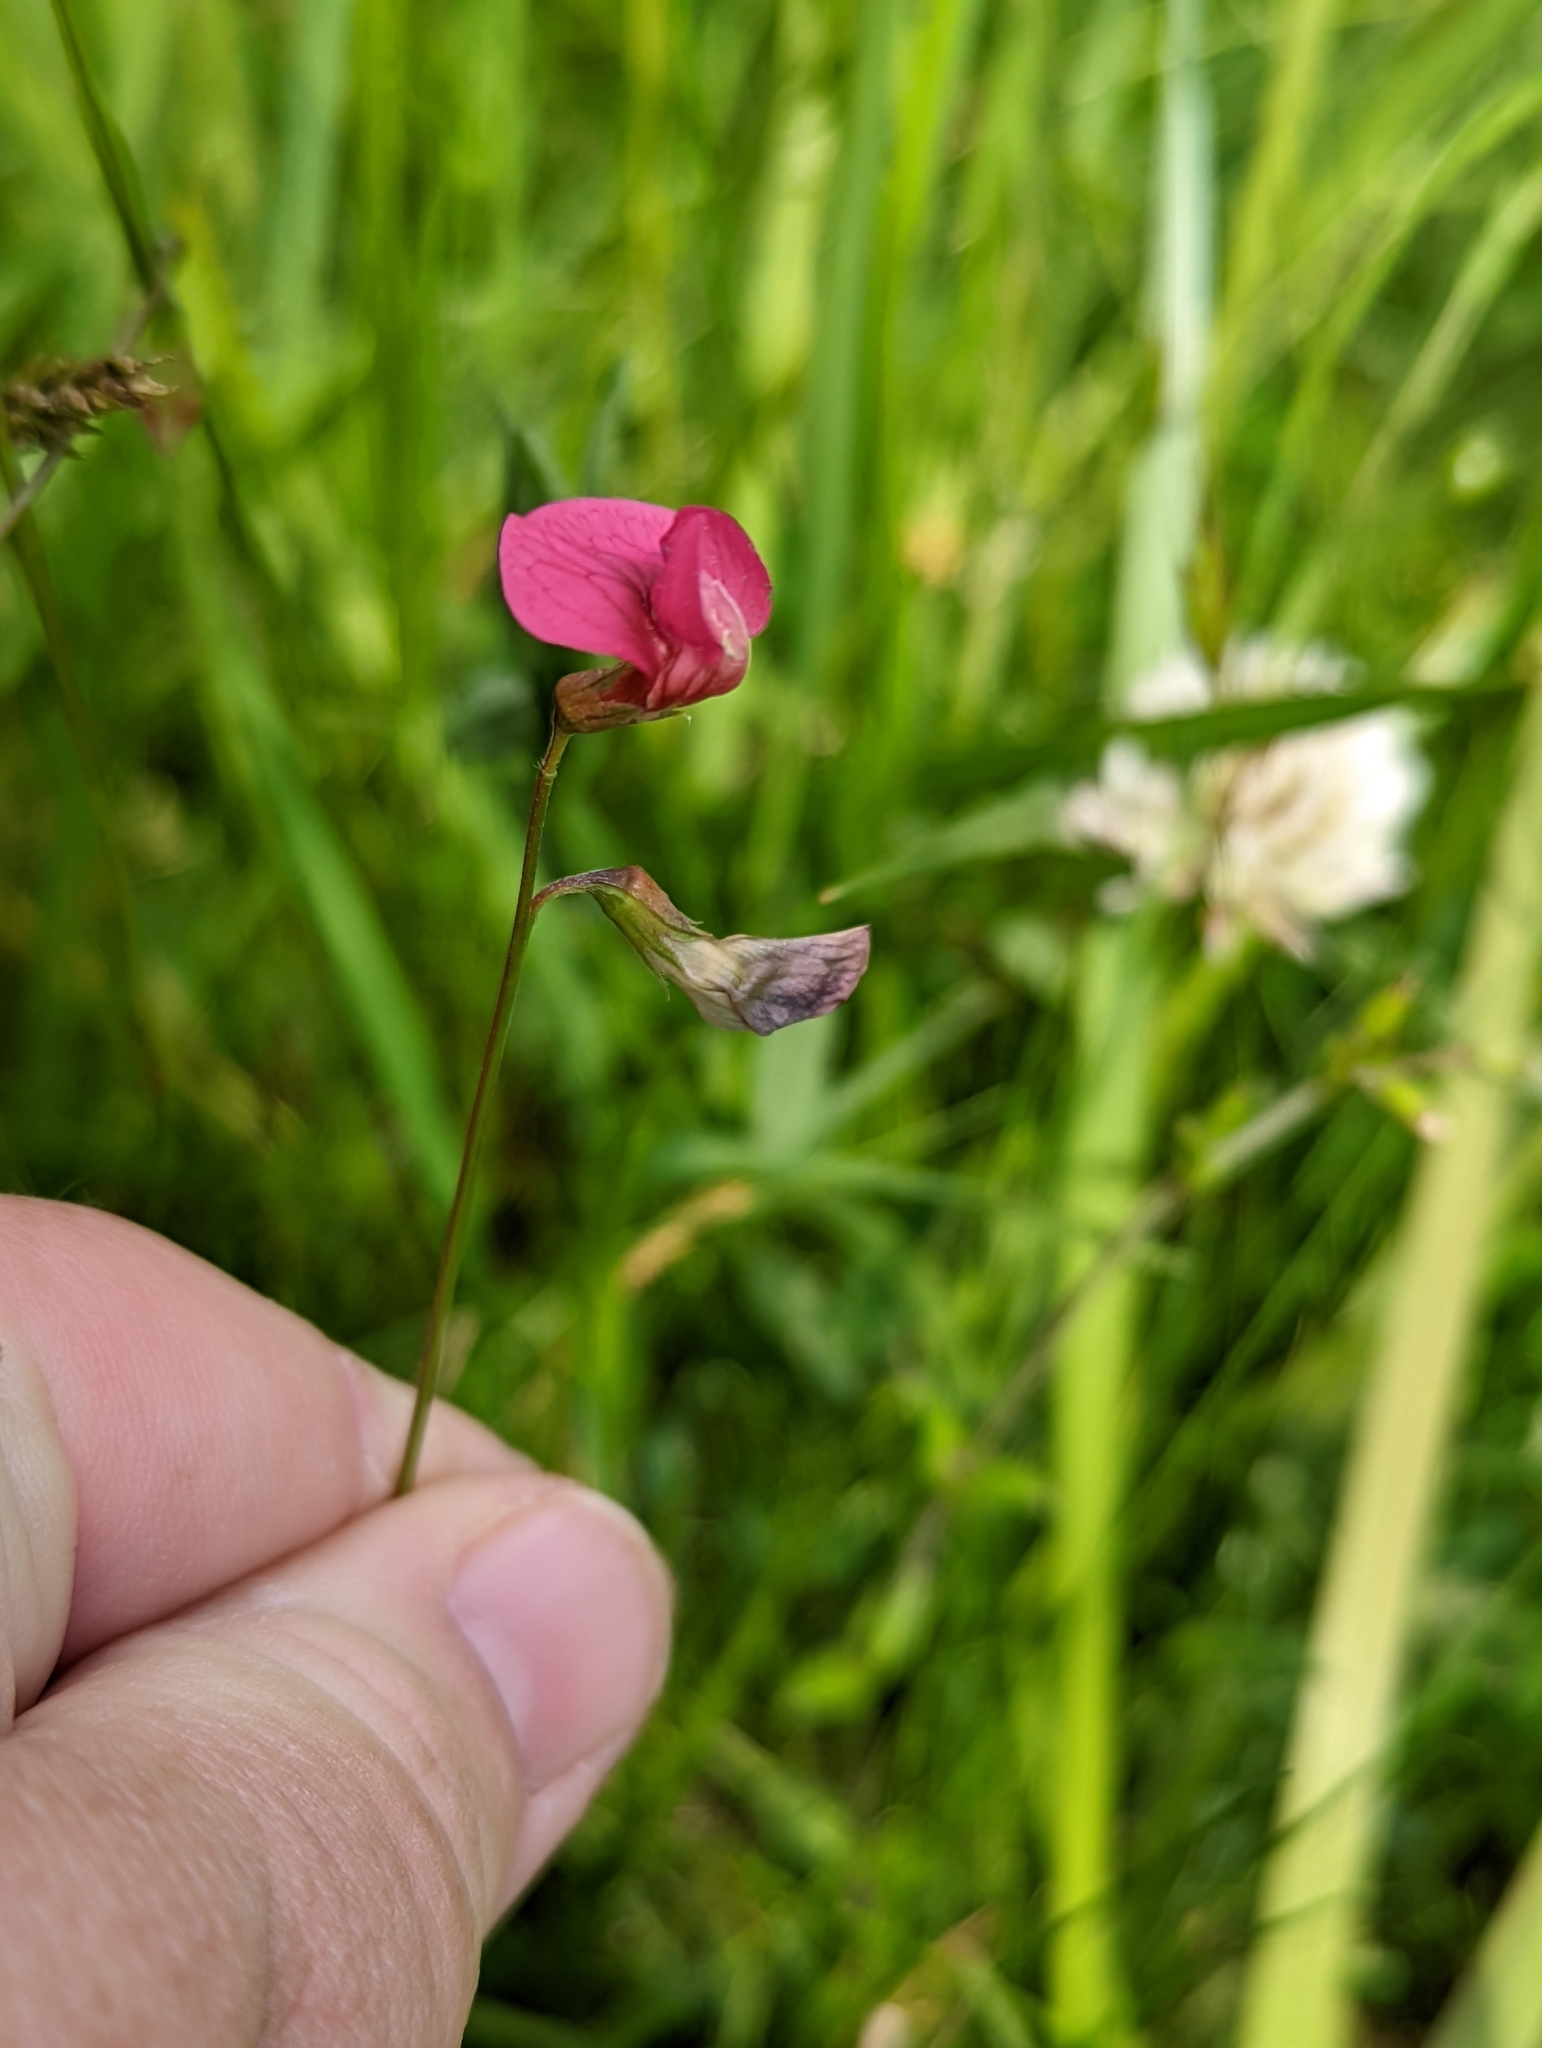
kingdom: Plantae
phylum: Tracheophyta
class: Magnoliopsida
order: Fabales
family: Fabaceae
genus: Lathyrus
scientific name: Lathyrus nissolia
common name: Grass vetchling
